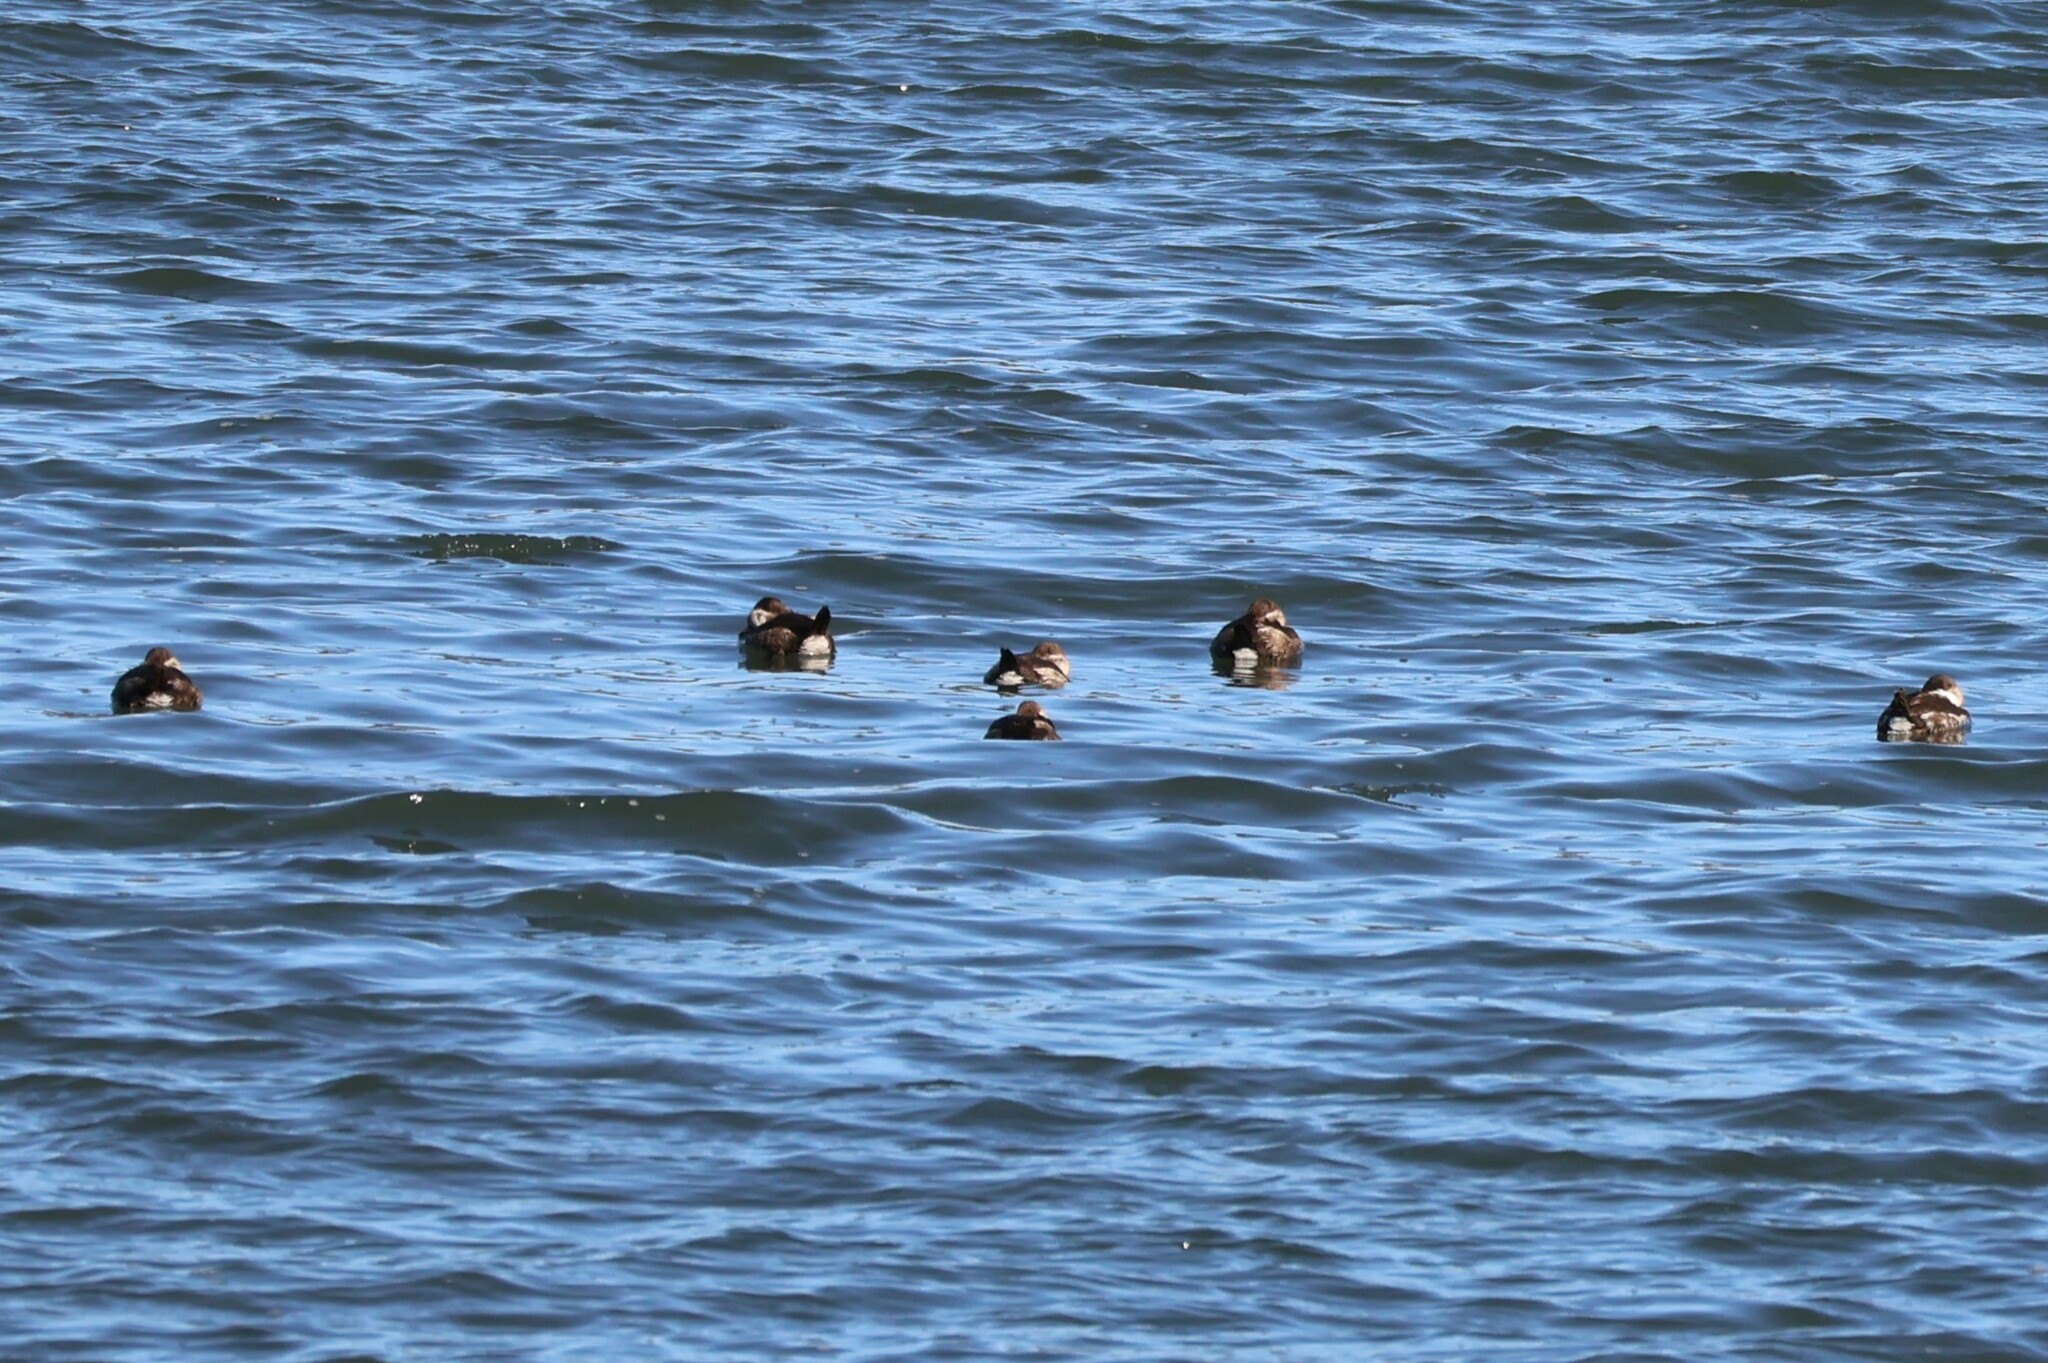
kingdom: Animalia
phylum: Chordata
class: Aves
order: Anseriformes
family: Anatidae
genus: Oxyura
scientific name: Oxyura jamaicensis
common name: Ruddy duck
